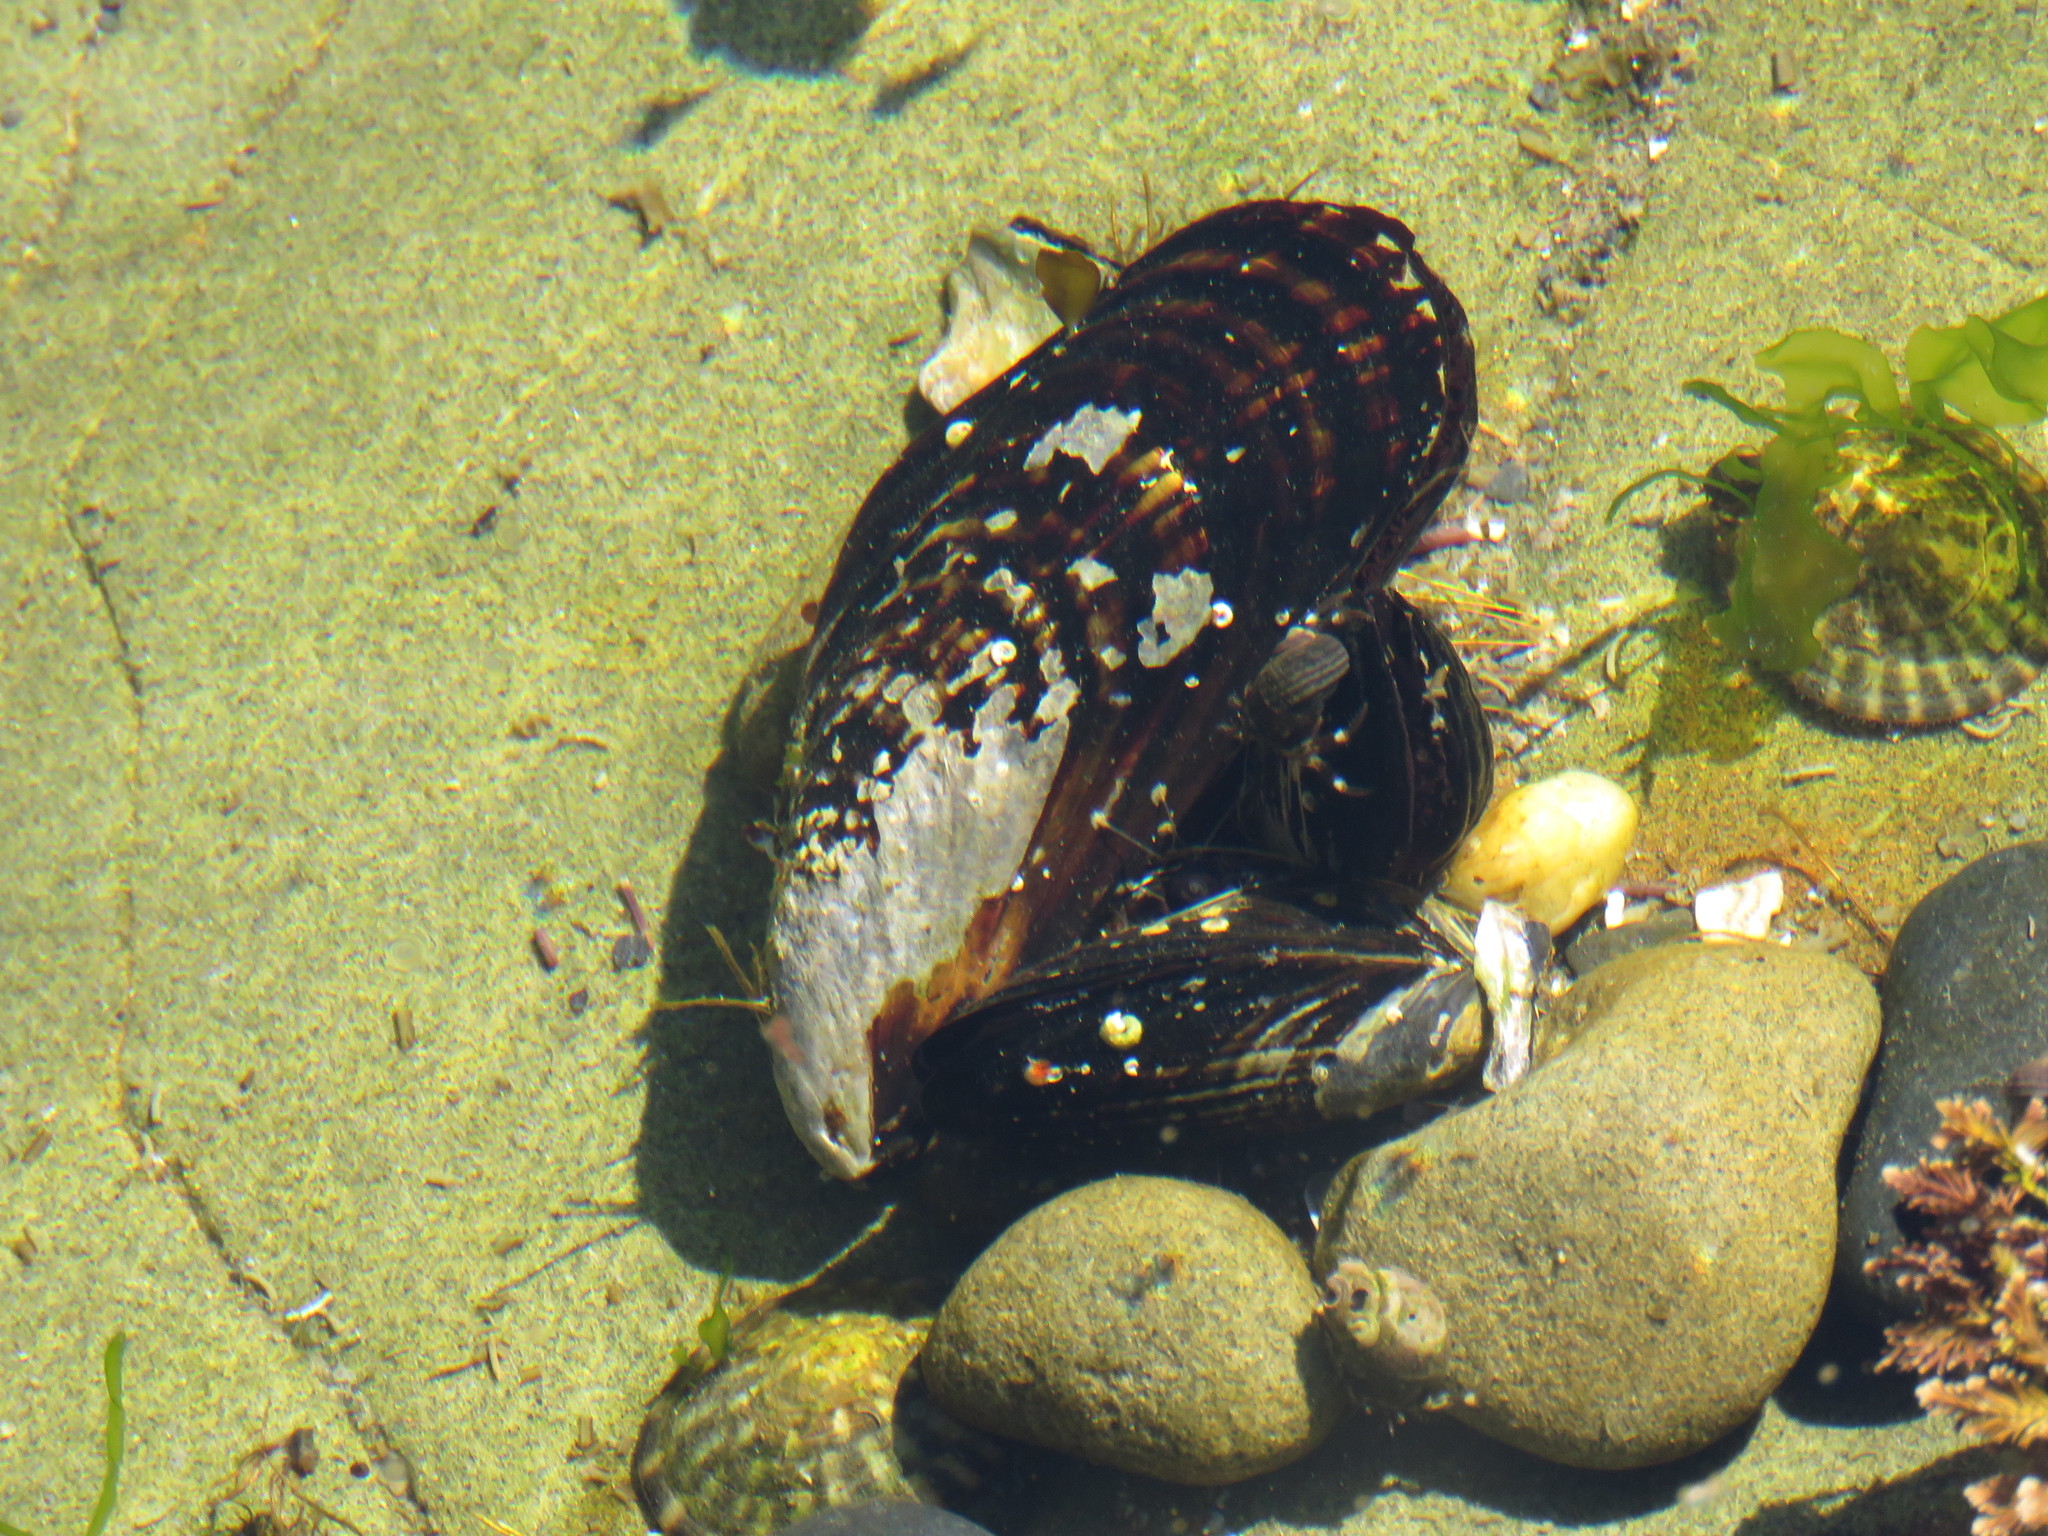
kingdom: Animalia
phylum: Mollusca
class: Bivalvia
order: Mytilida
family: Mytilidae
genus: Mytilus
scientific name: Mytilus californianus
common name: California mussel
